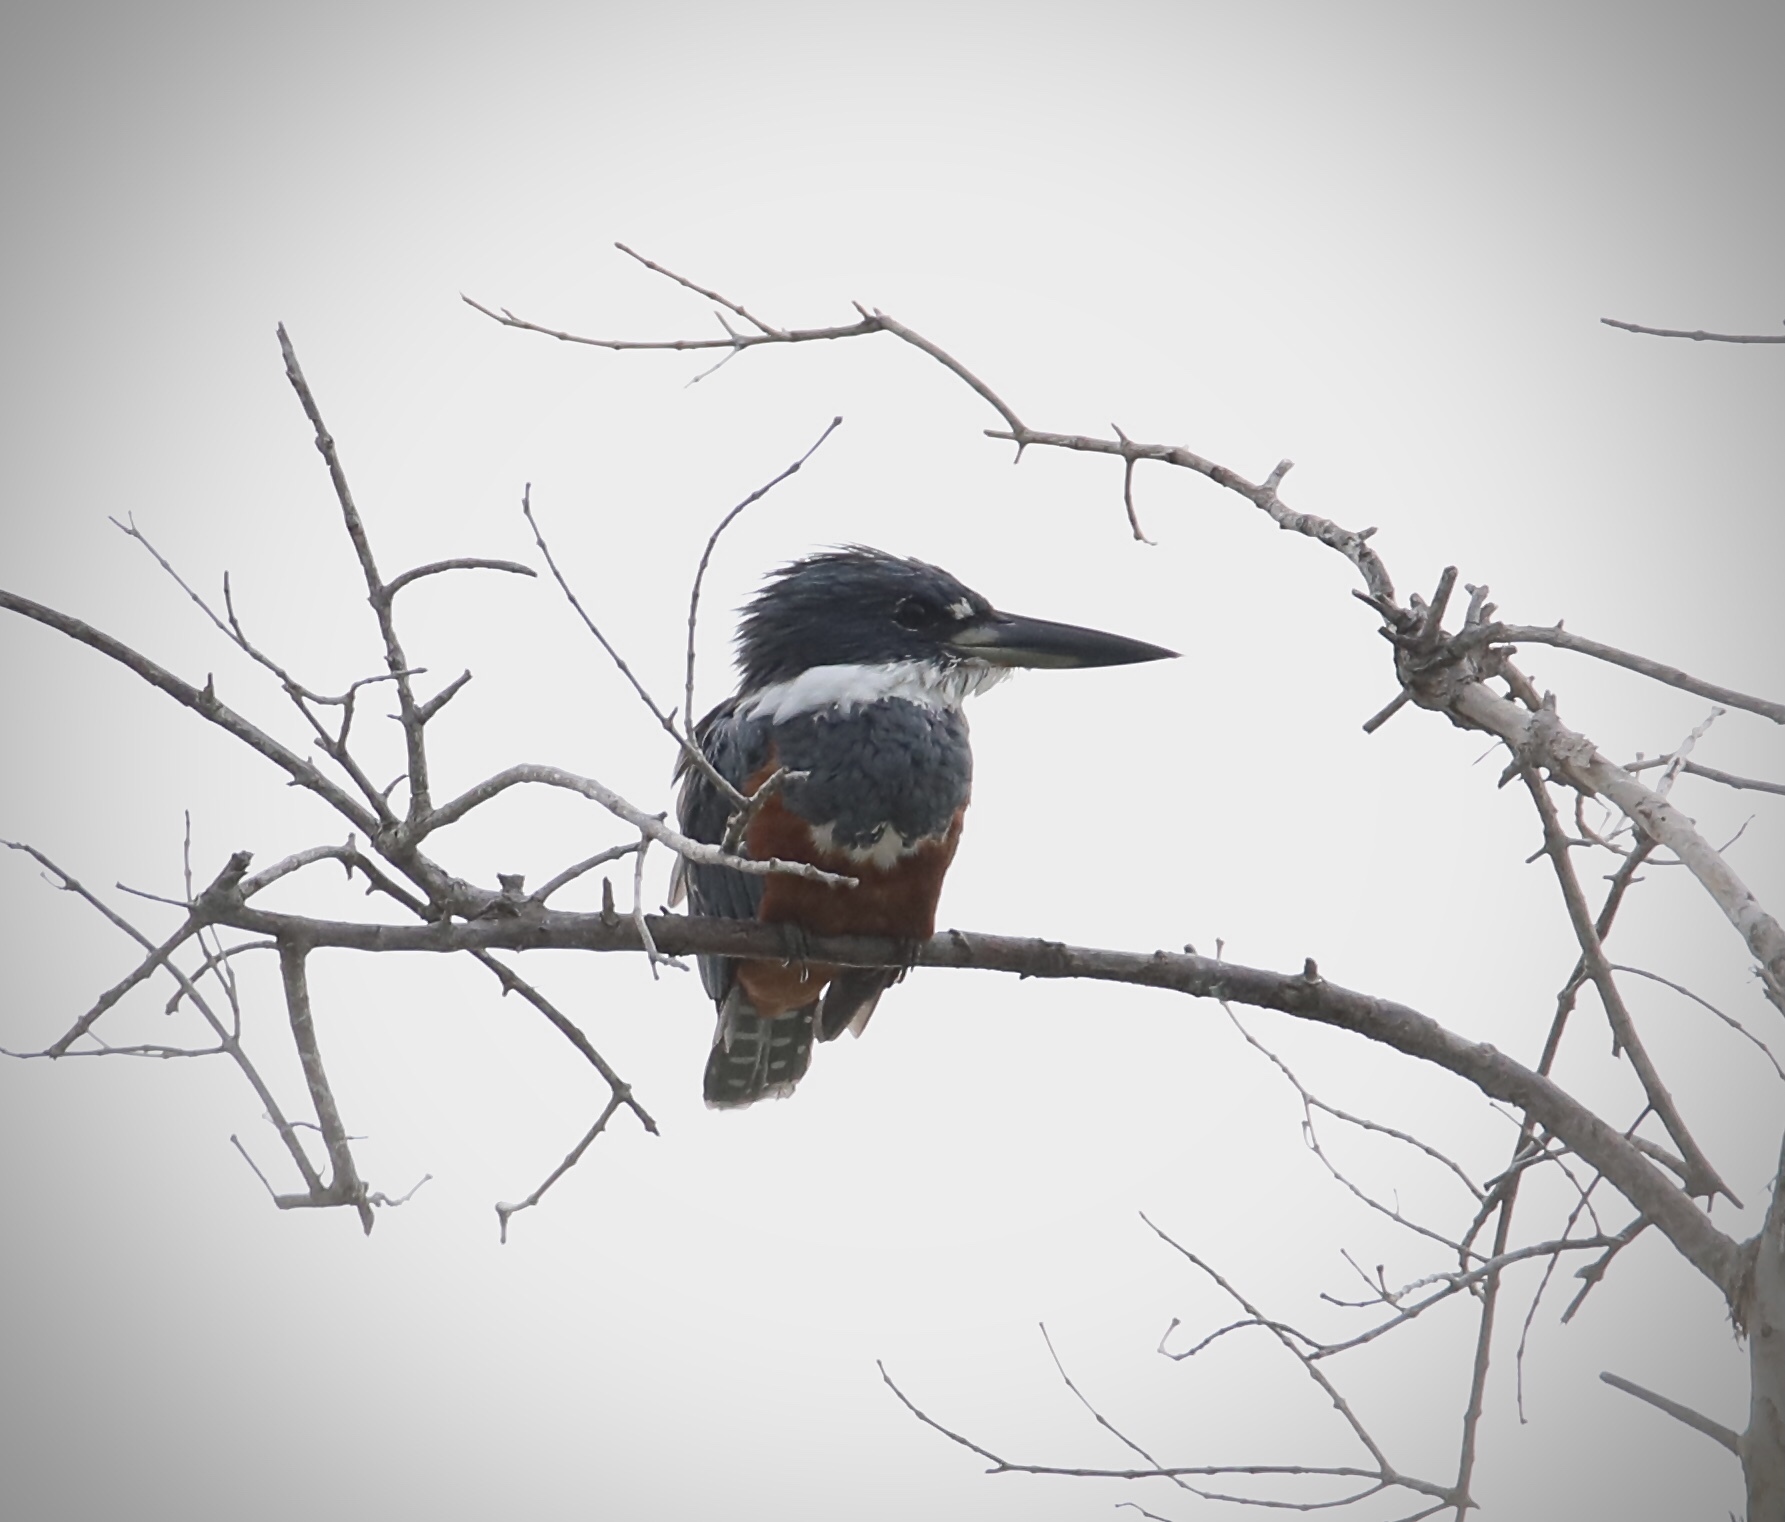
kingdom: Animalia
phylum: Chordata
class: Aves
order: Coraciiformes
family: Alcedinidae
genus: Megaceryle
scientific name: Megaceryle torquata
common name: Ringed kingfisher
